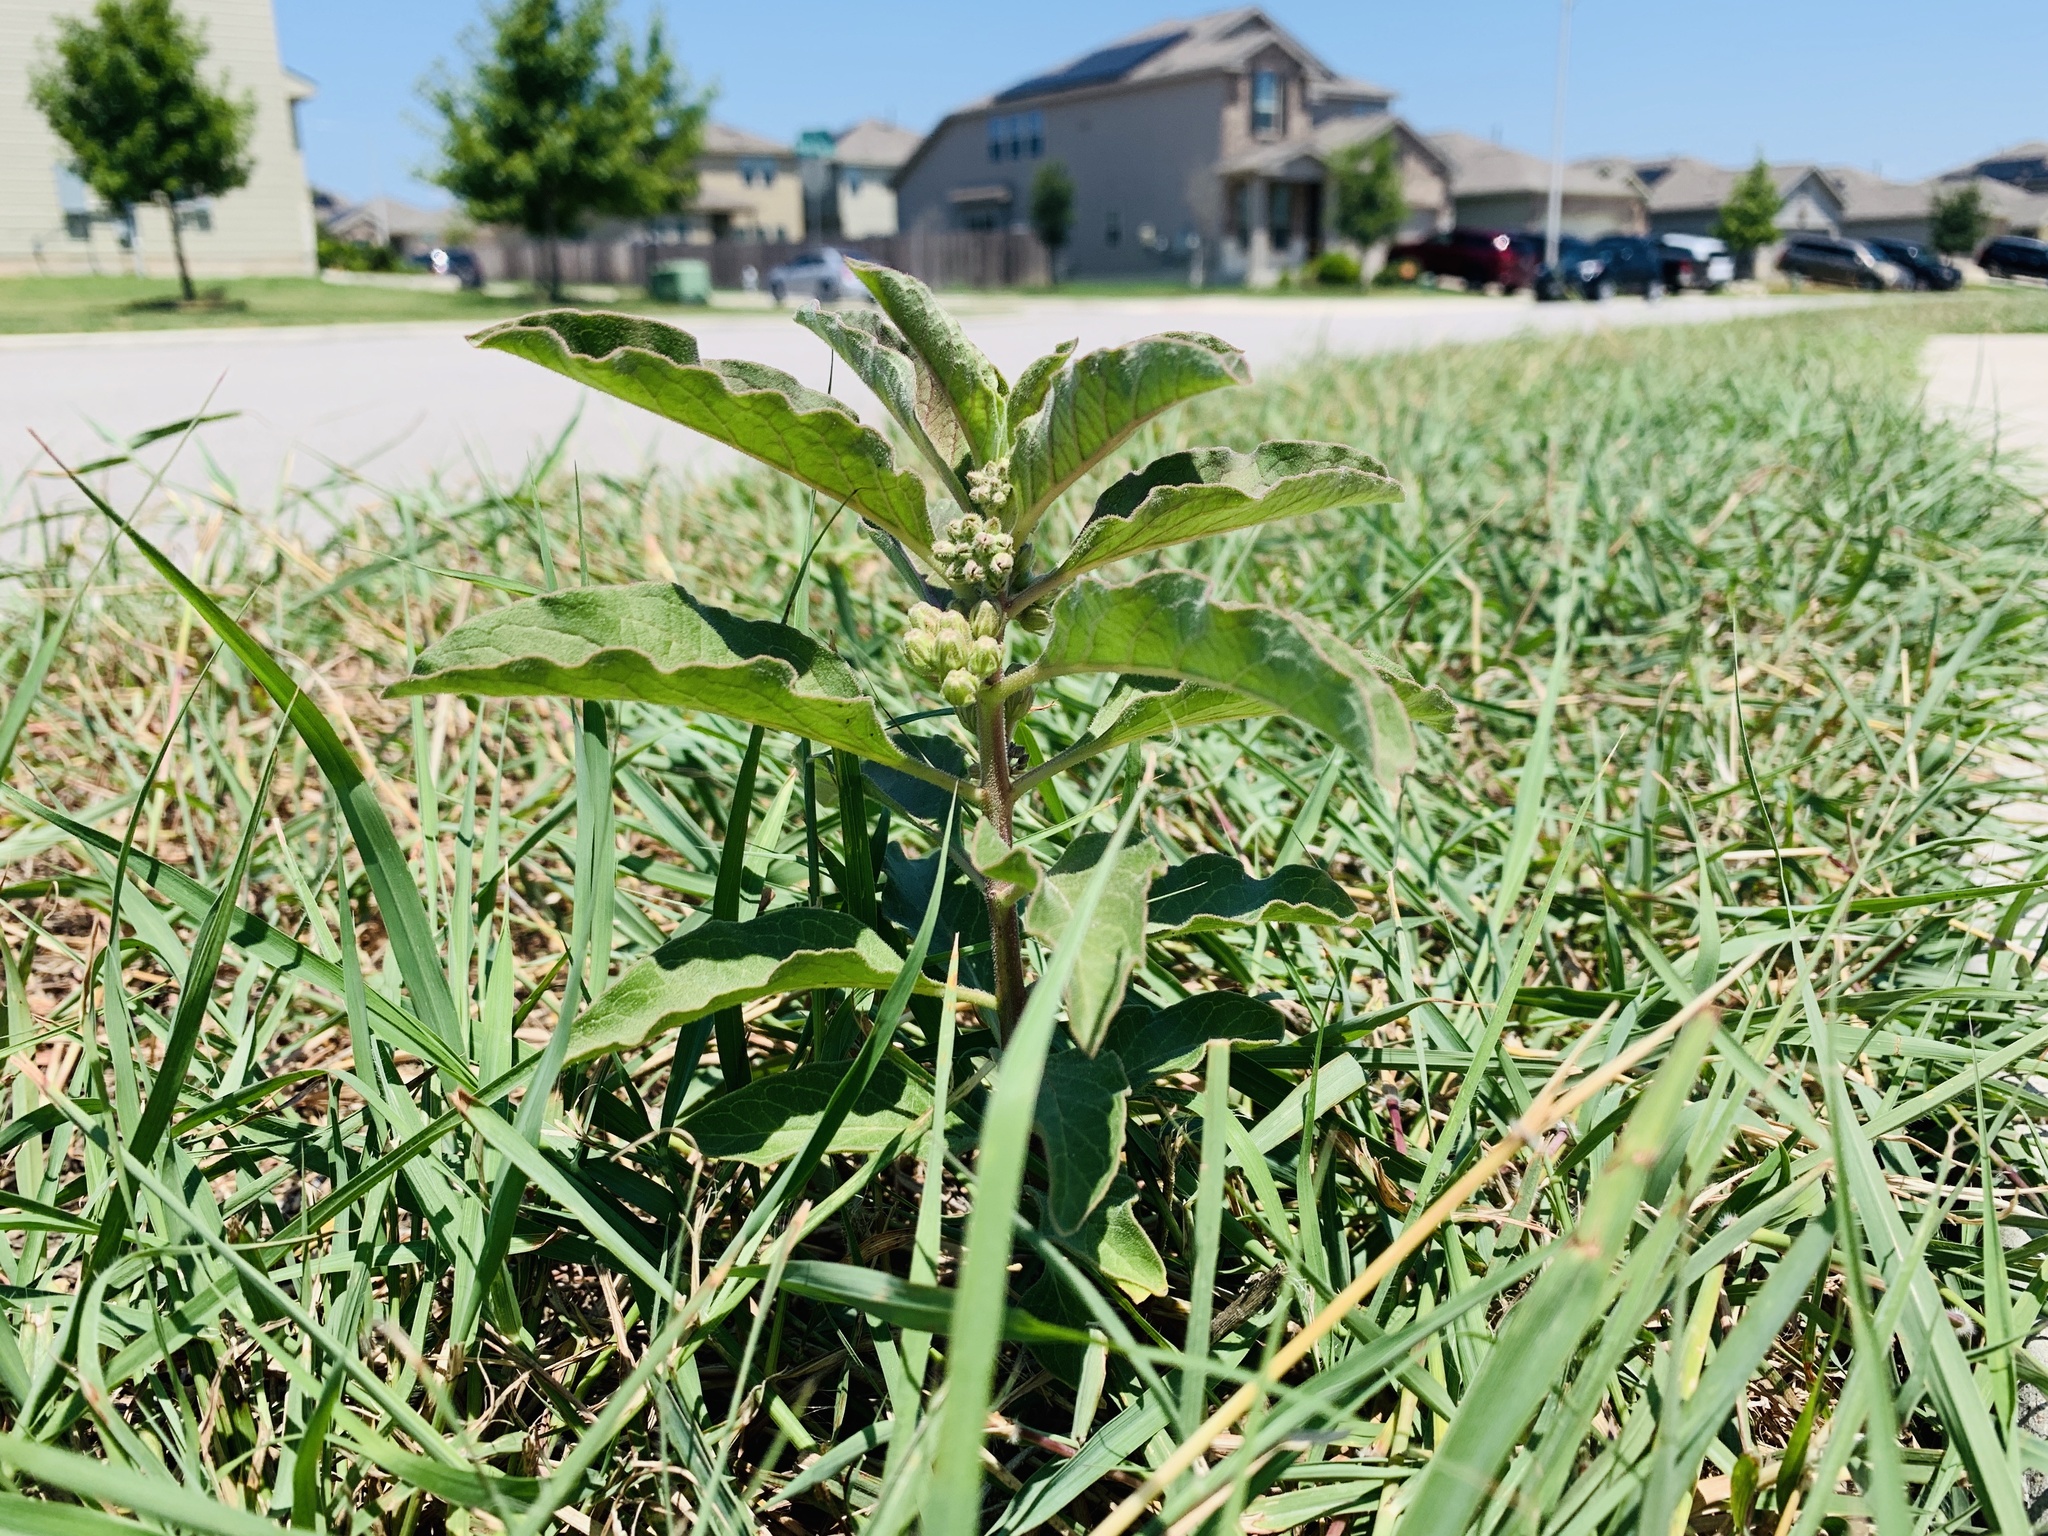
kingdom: Plantae
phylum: Tracheophyta
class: Magnoliopsida
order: Gentianales
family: Apocynaceae
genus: Asclepias
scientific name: Asclepias oenotheroides
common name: Zizotes milkweed
